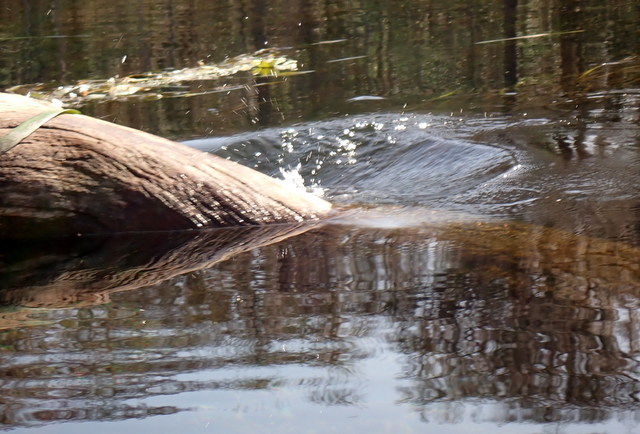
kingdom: Animalia
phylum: Chordata
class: Testudines
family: Emydidae
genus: Pseudemys
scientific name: Pseudemys concinna
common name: Eastern river cooter
